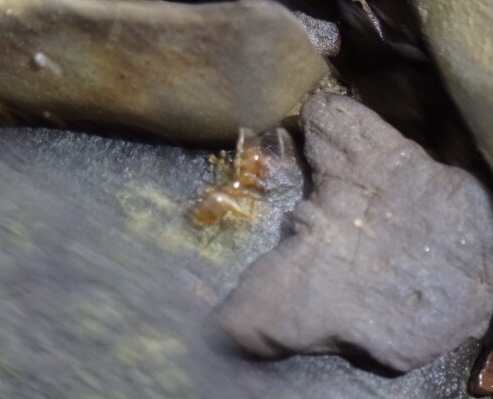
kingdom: Animalia
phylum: Arthropoda
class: Insecta
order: Hymenoptera
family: Formicidae
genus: Prenolepis
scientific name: Prenolepis imparis
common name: Small honey ant
